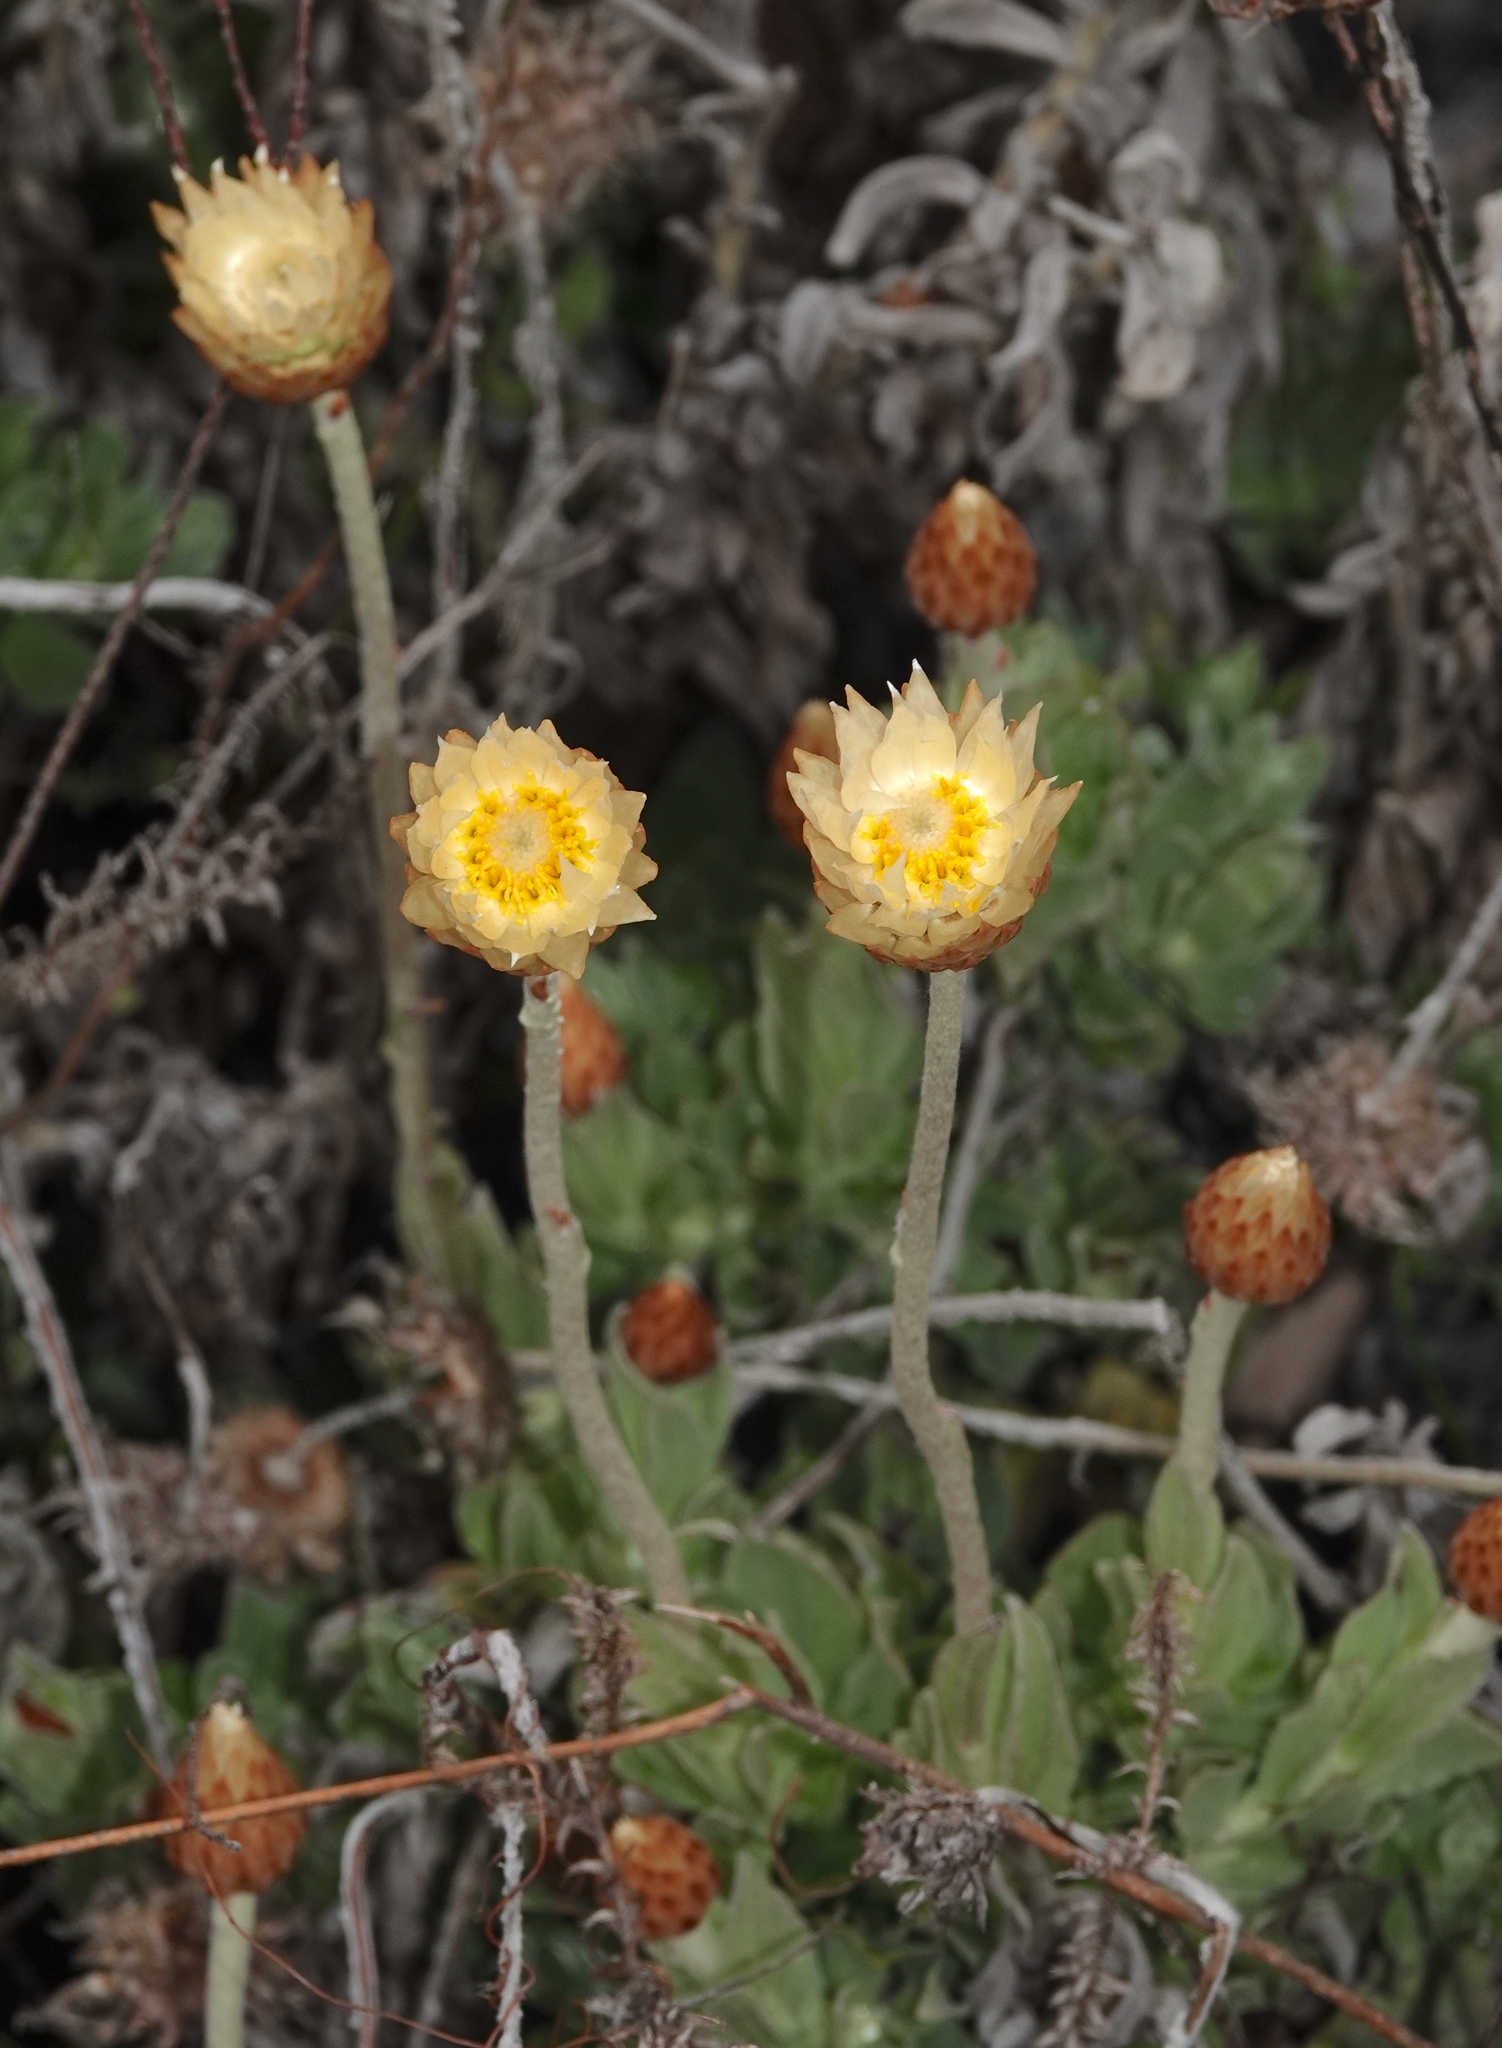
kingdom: Plantae
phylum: Tracheophyta
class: Magnoliopsida
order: Asterales
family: Asteraceae
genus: Syncarpha
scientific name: Syncarpha speciosissima
